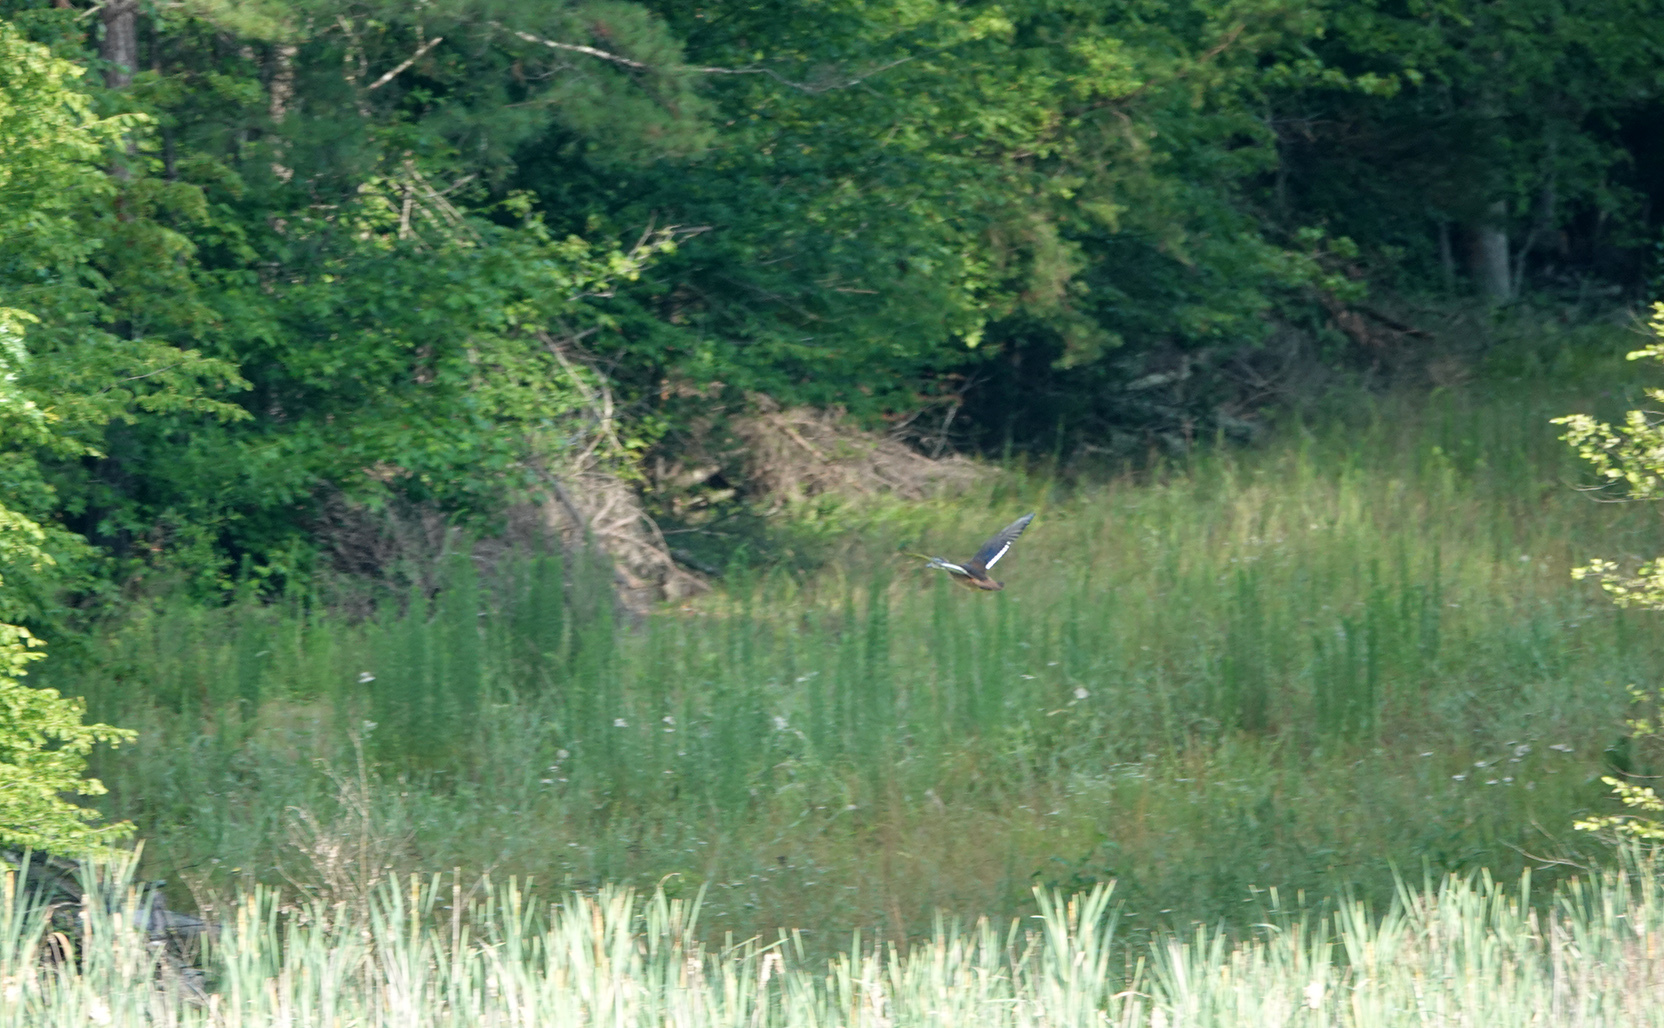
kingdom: Animalia
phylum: Chordata
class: Aves
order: Anseriformes
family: Anatidae
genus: Aix
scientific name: Aix sponsa
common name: Wood duck
